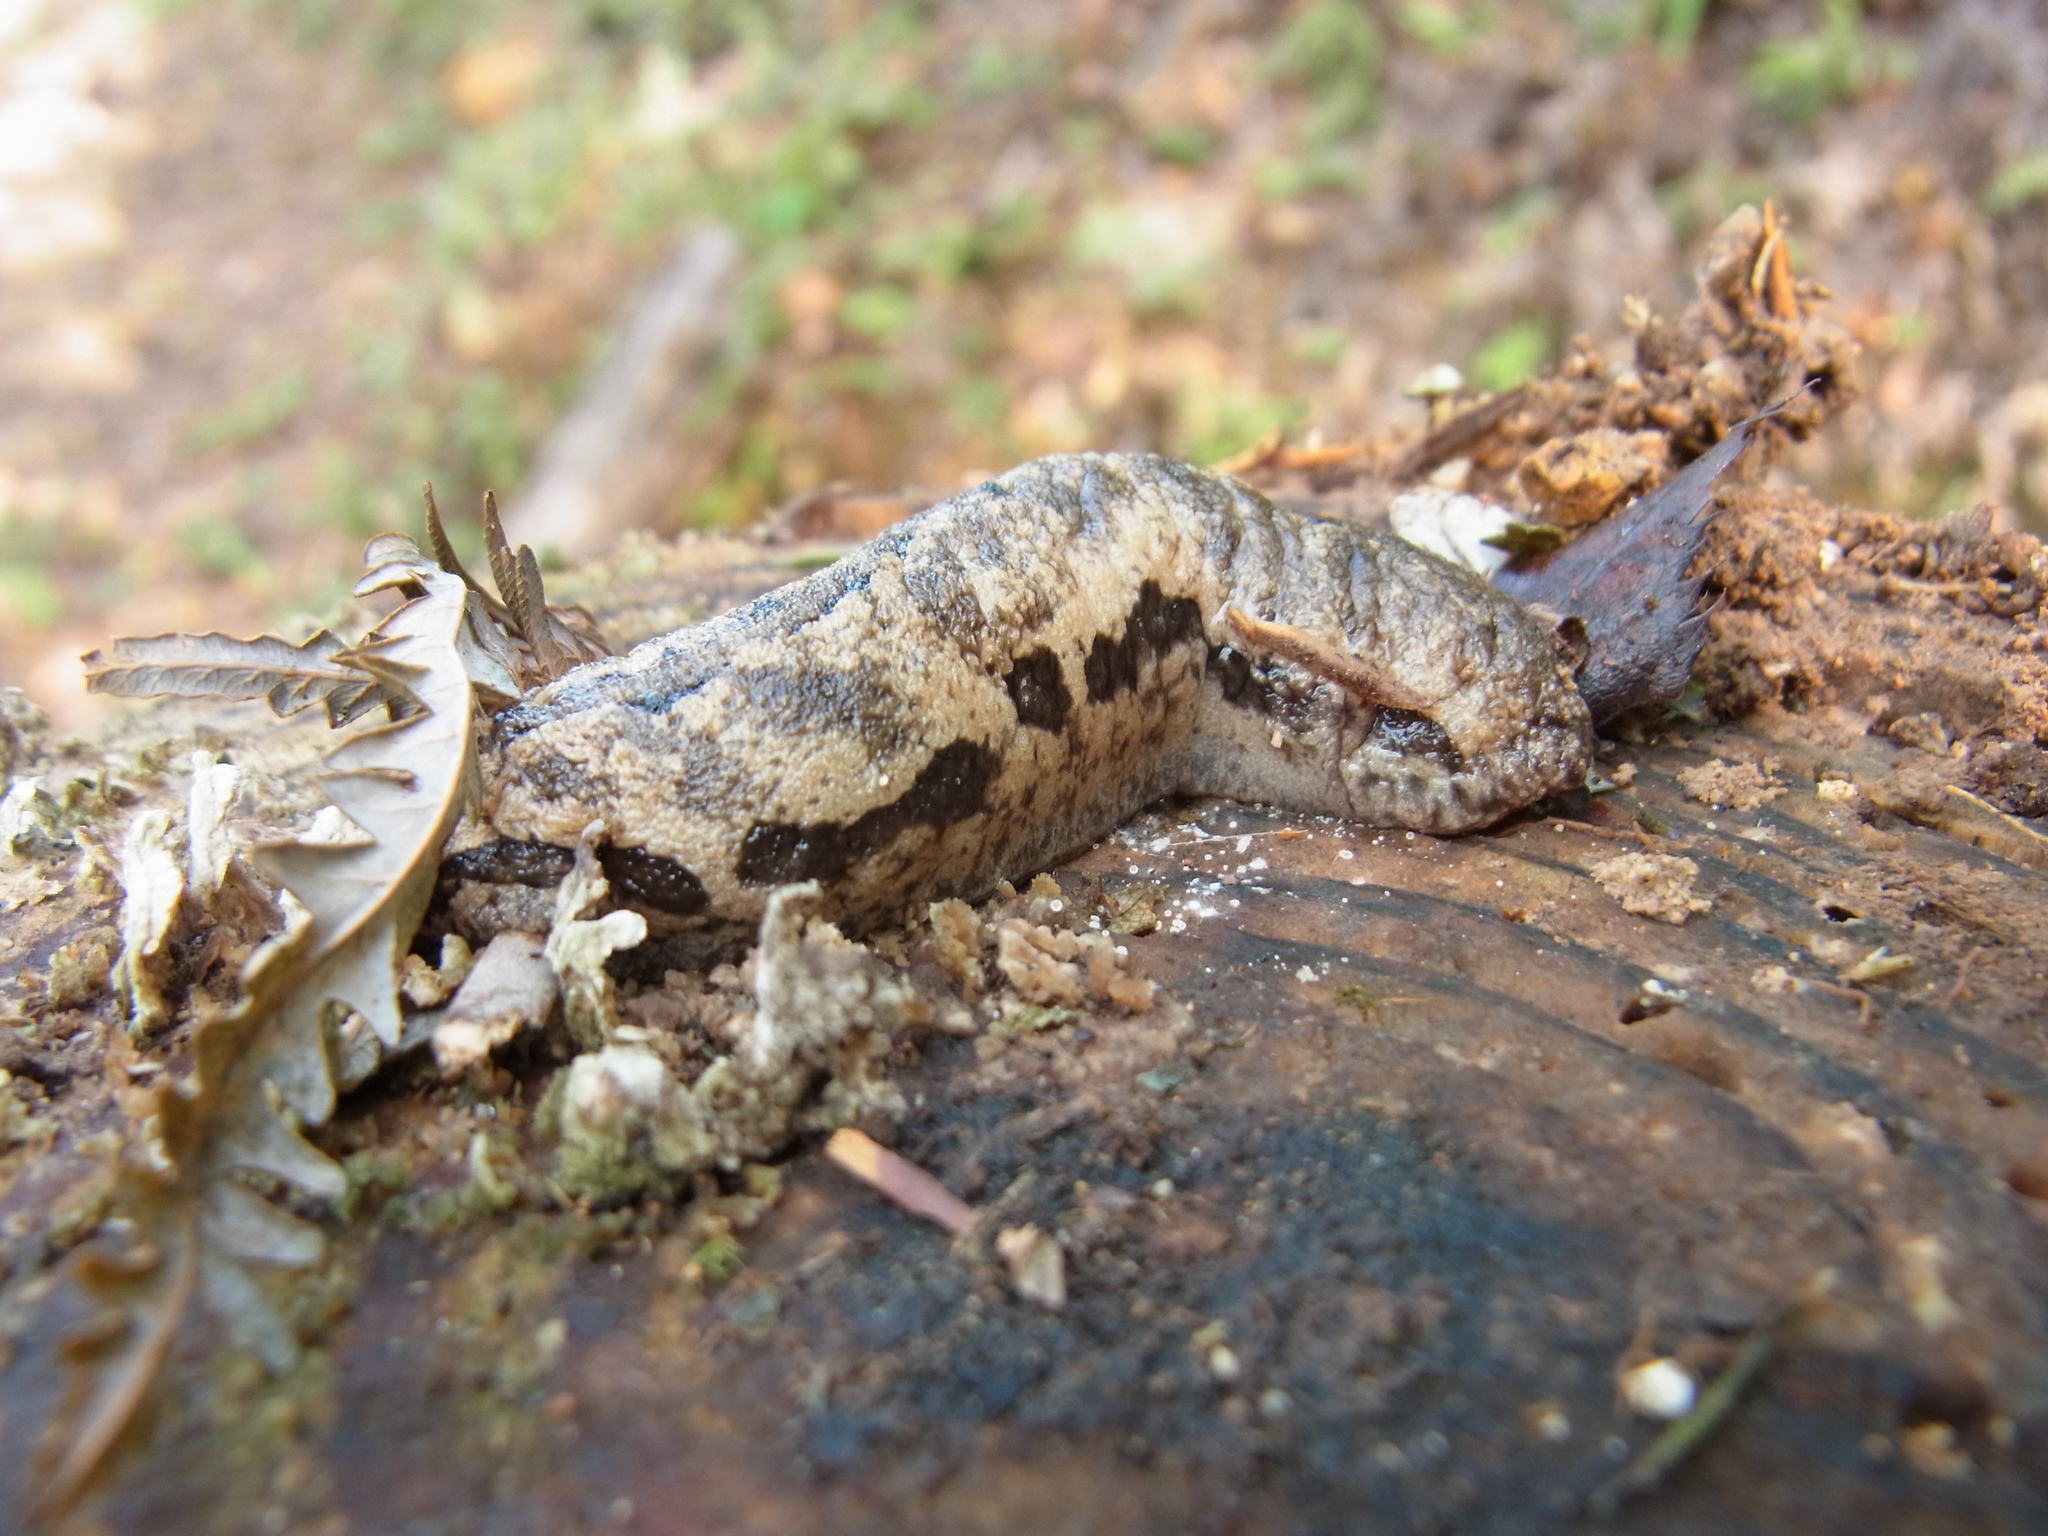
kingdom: Animalia
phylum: Mollusca
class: Gastropoda
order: Stylommatophora
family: Philomycidae
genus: Meghimatium
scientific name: Meghimatium fruhstorferi
